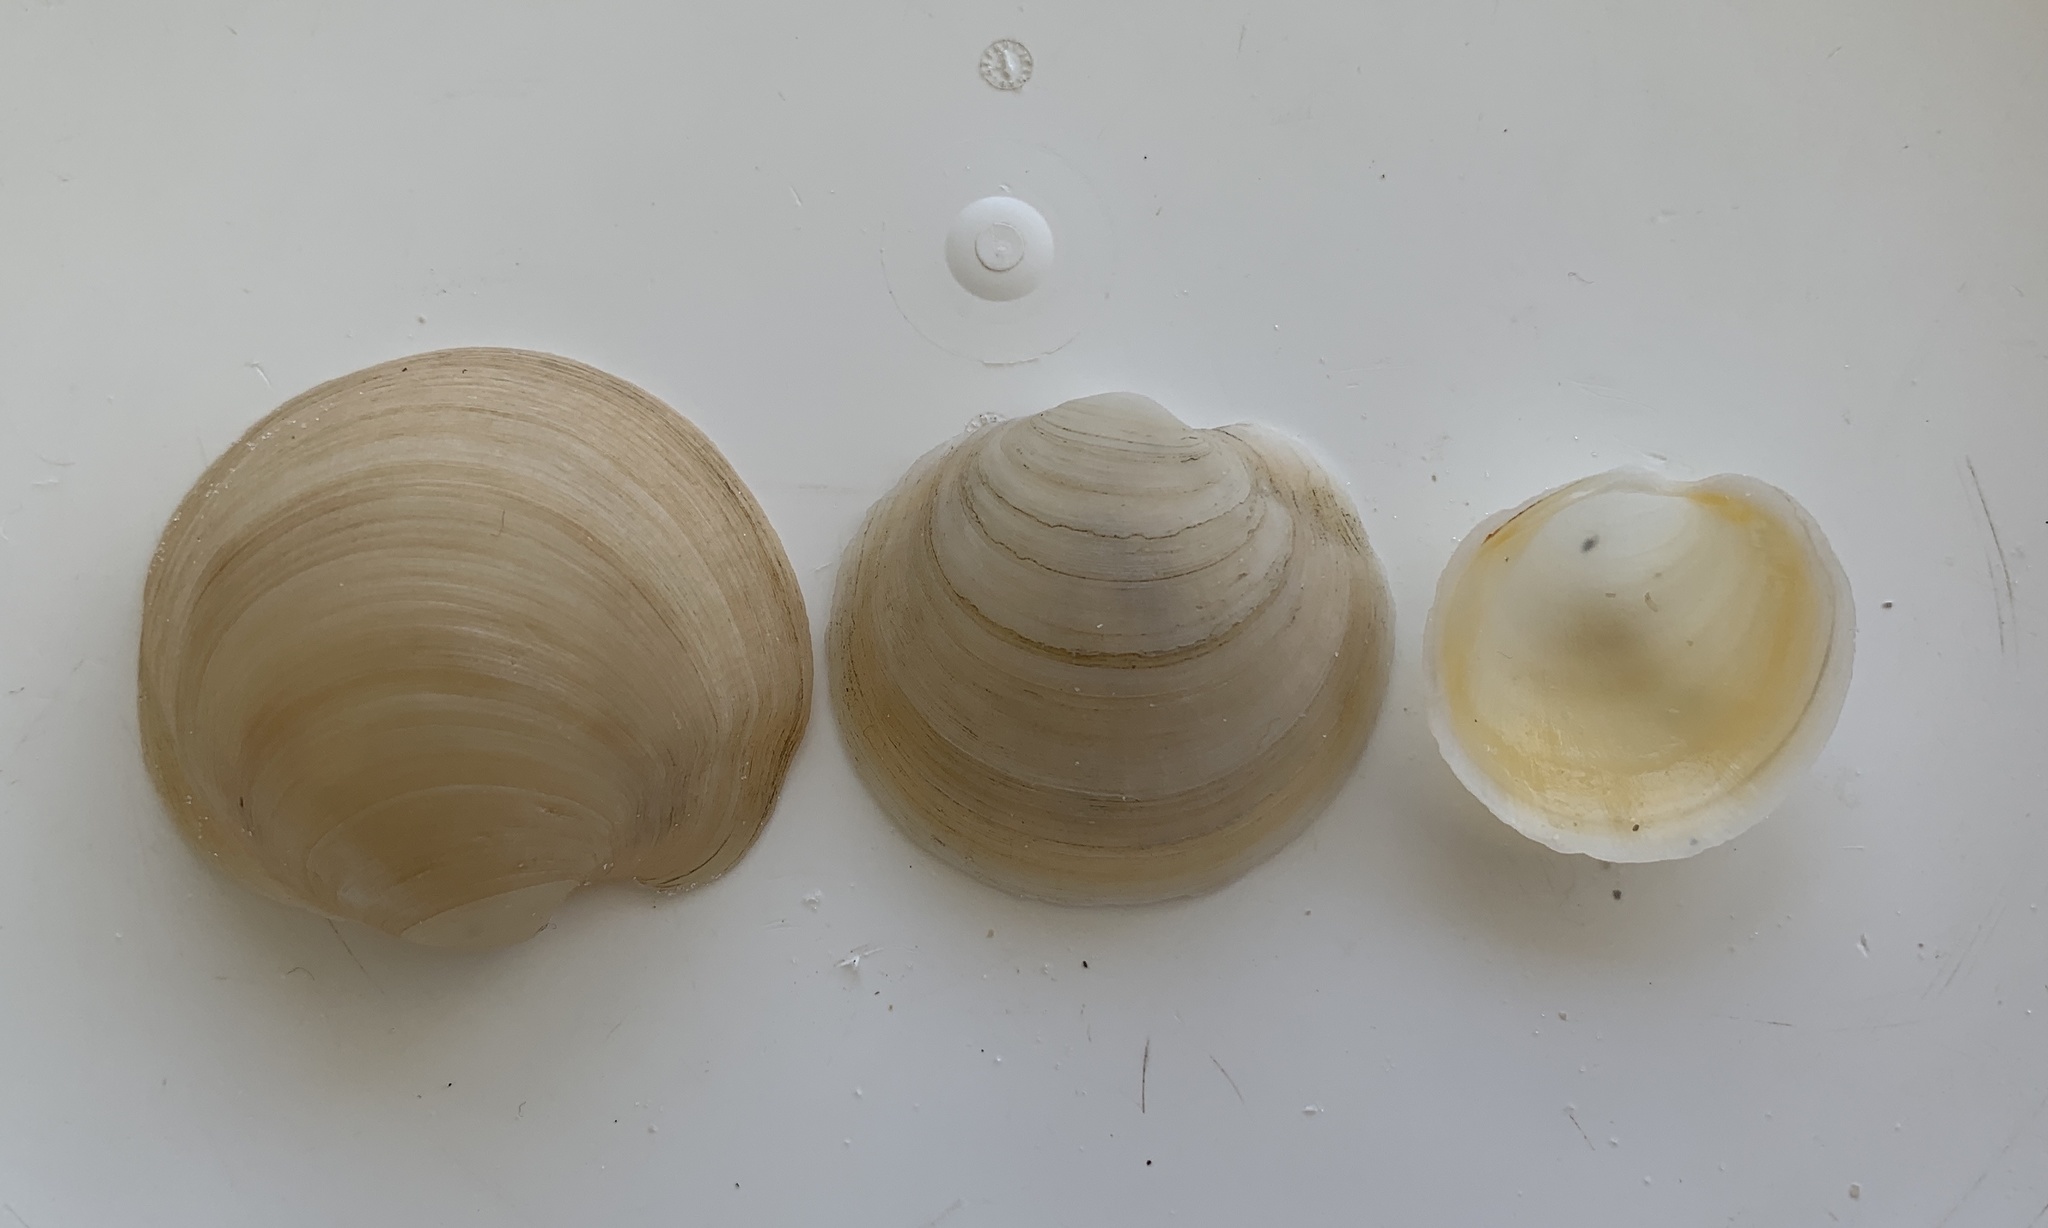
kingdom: Animalia
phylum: Mollusca
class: Bivalvia
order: Lucinida
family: Lucinidae
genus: Anodontia
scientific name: Anodontia alba
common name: Buttercup lucine
